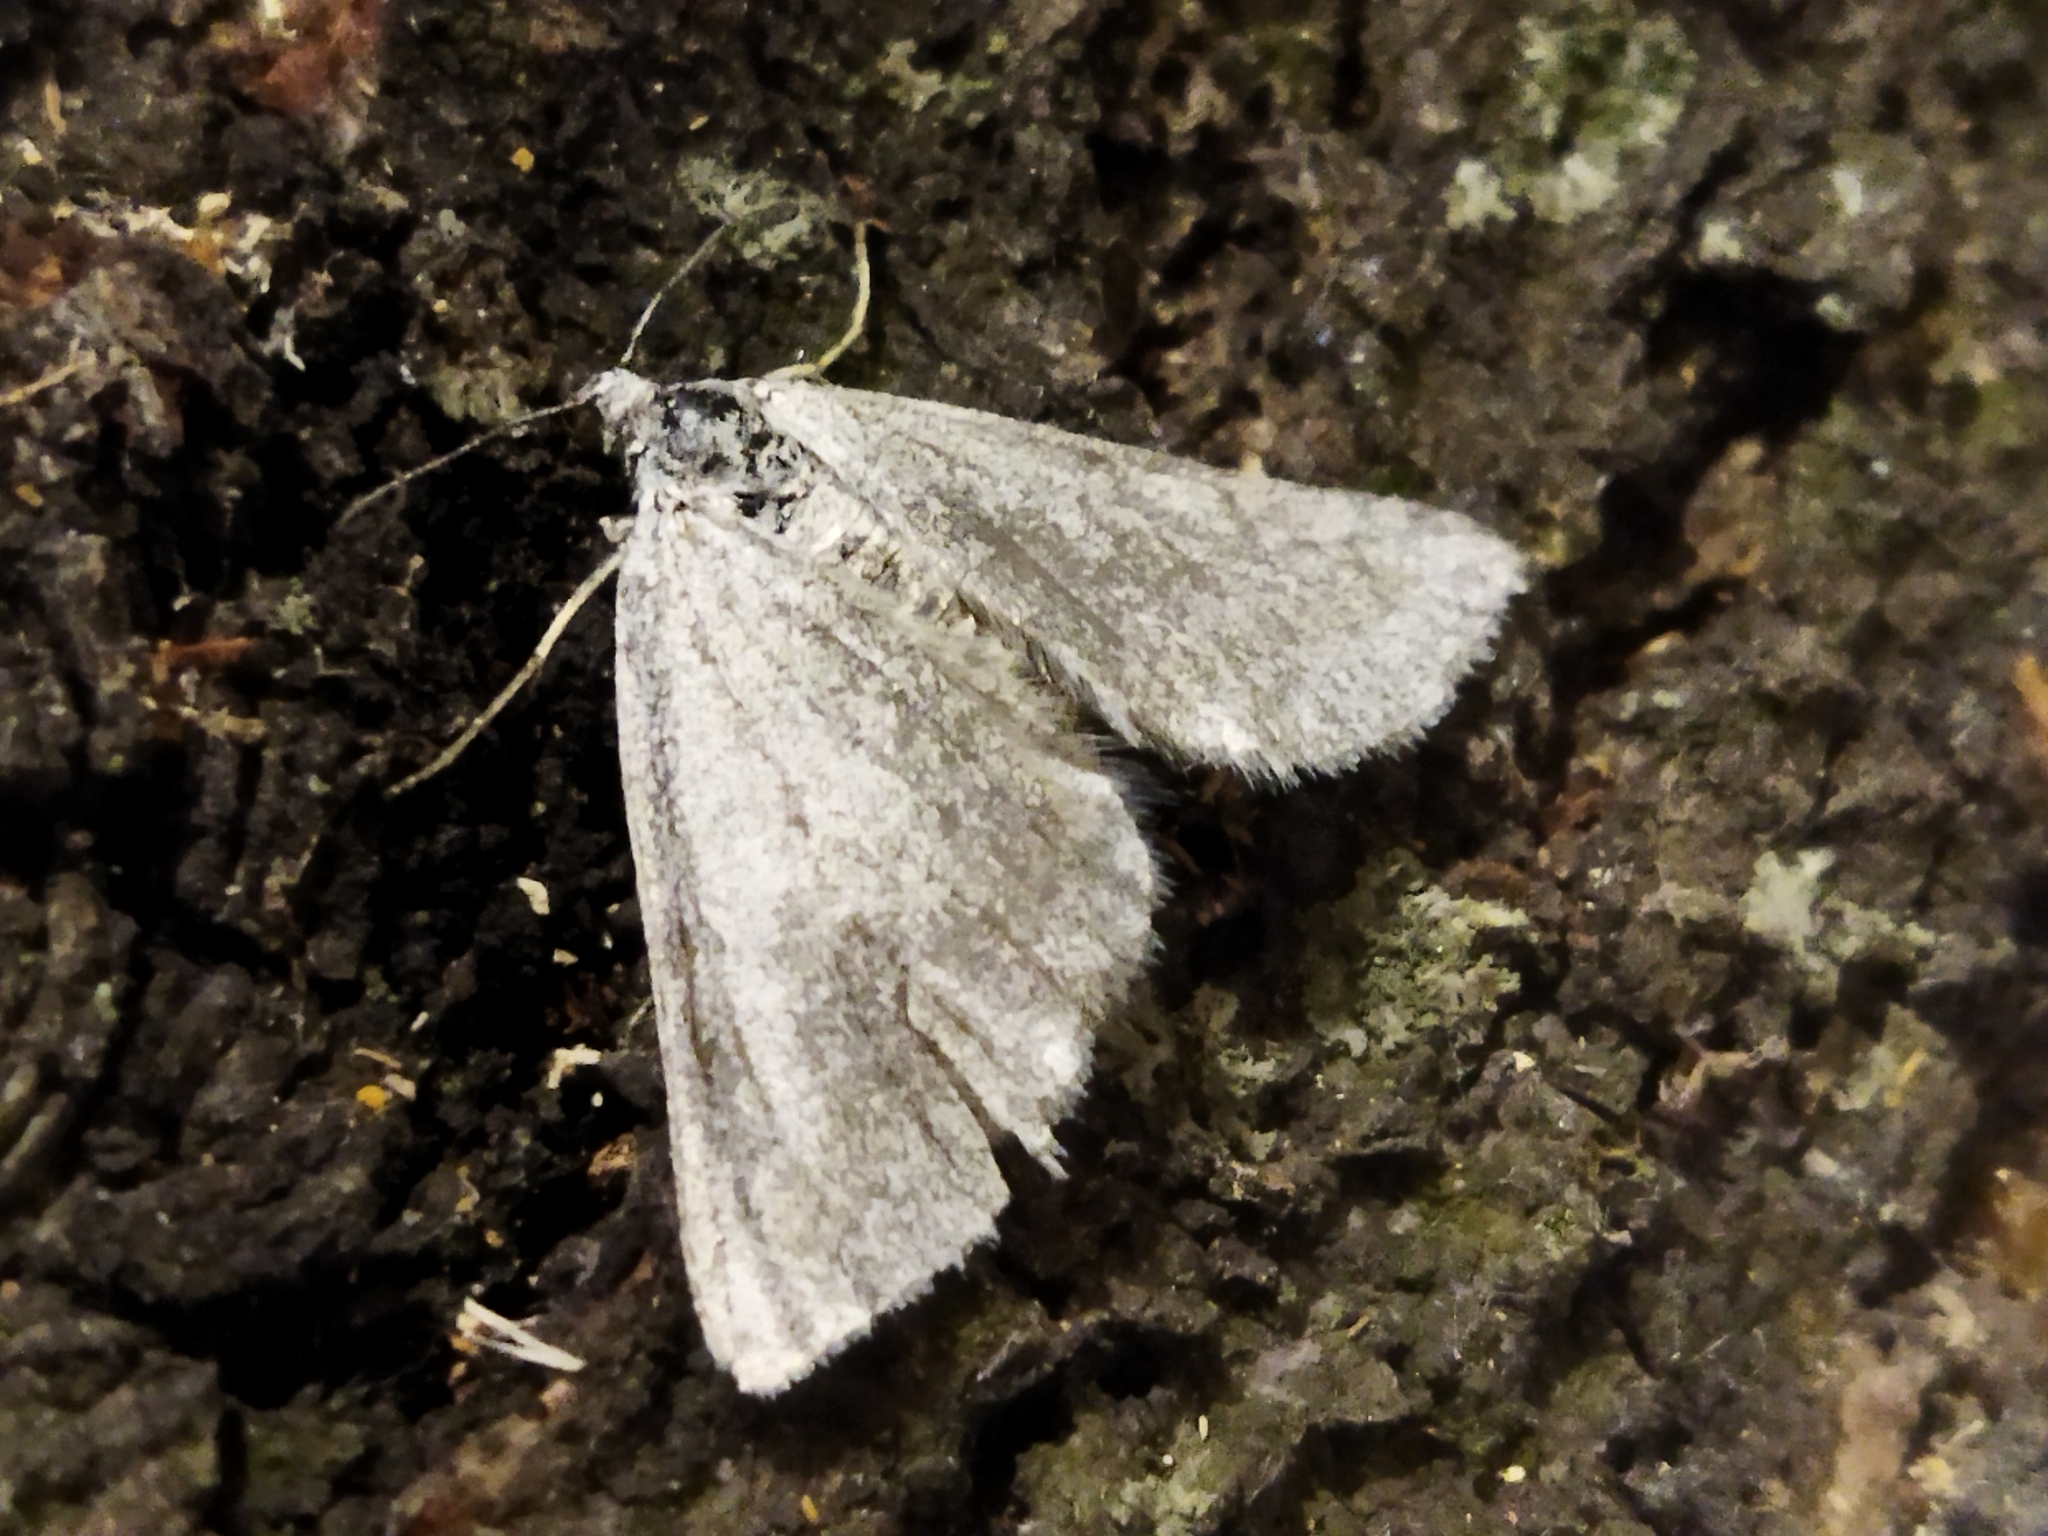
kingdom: Animalia
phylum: Arthropoda
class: Insecta
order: Lepidoptera
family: Geometridae
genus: Lithostege
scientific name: Lithostege griseata
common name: Grey carpet
